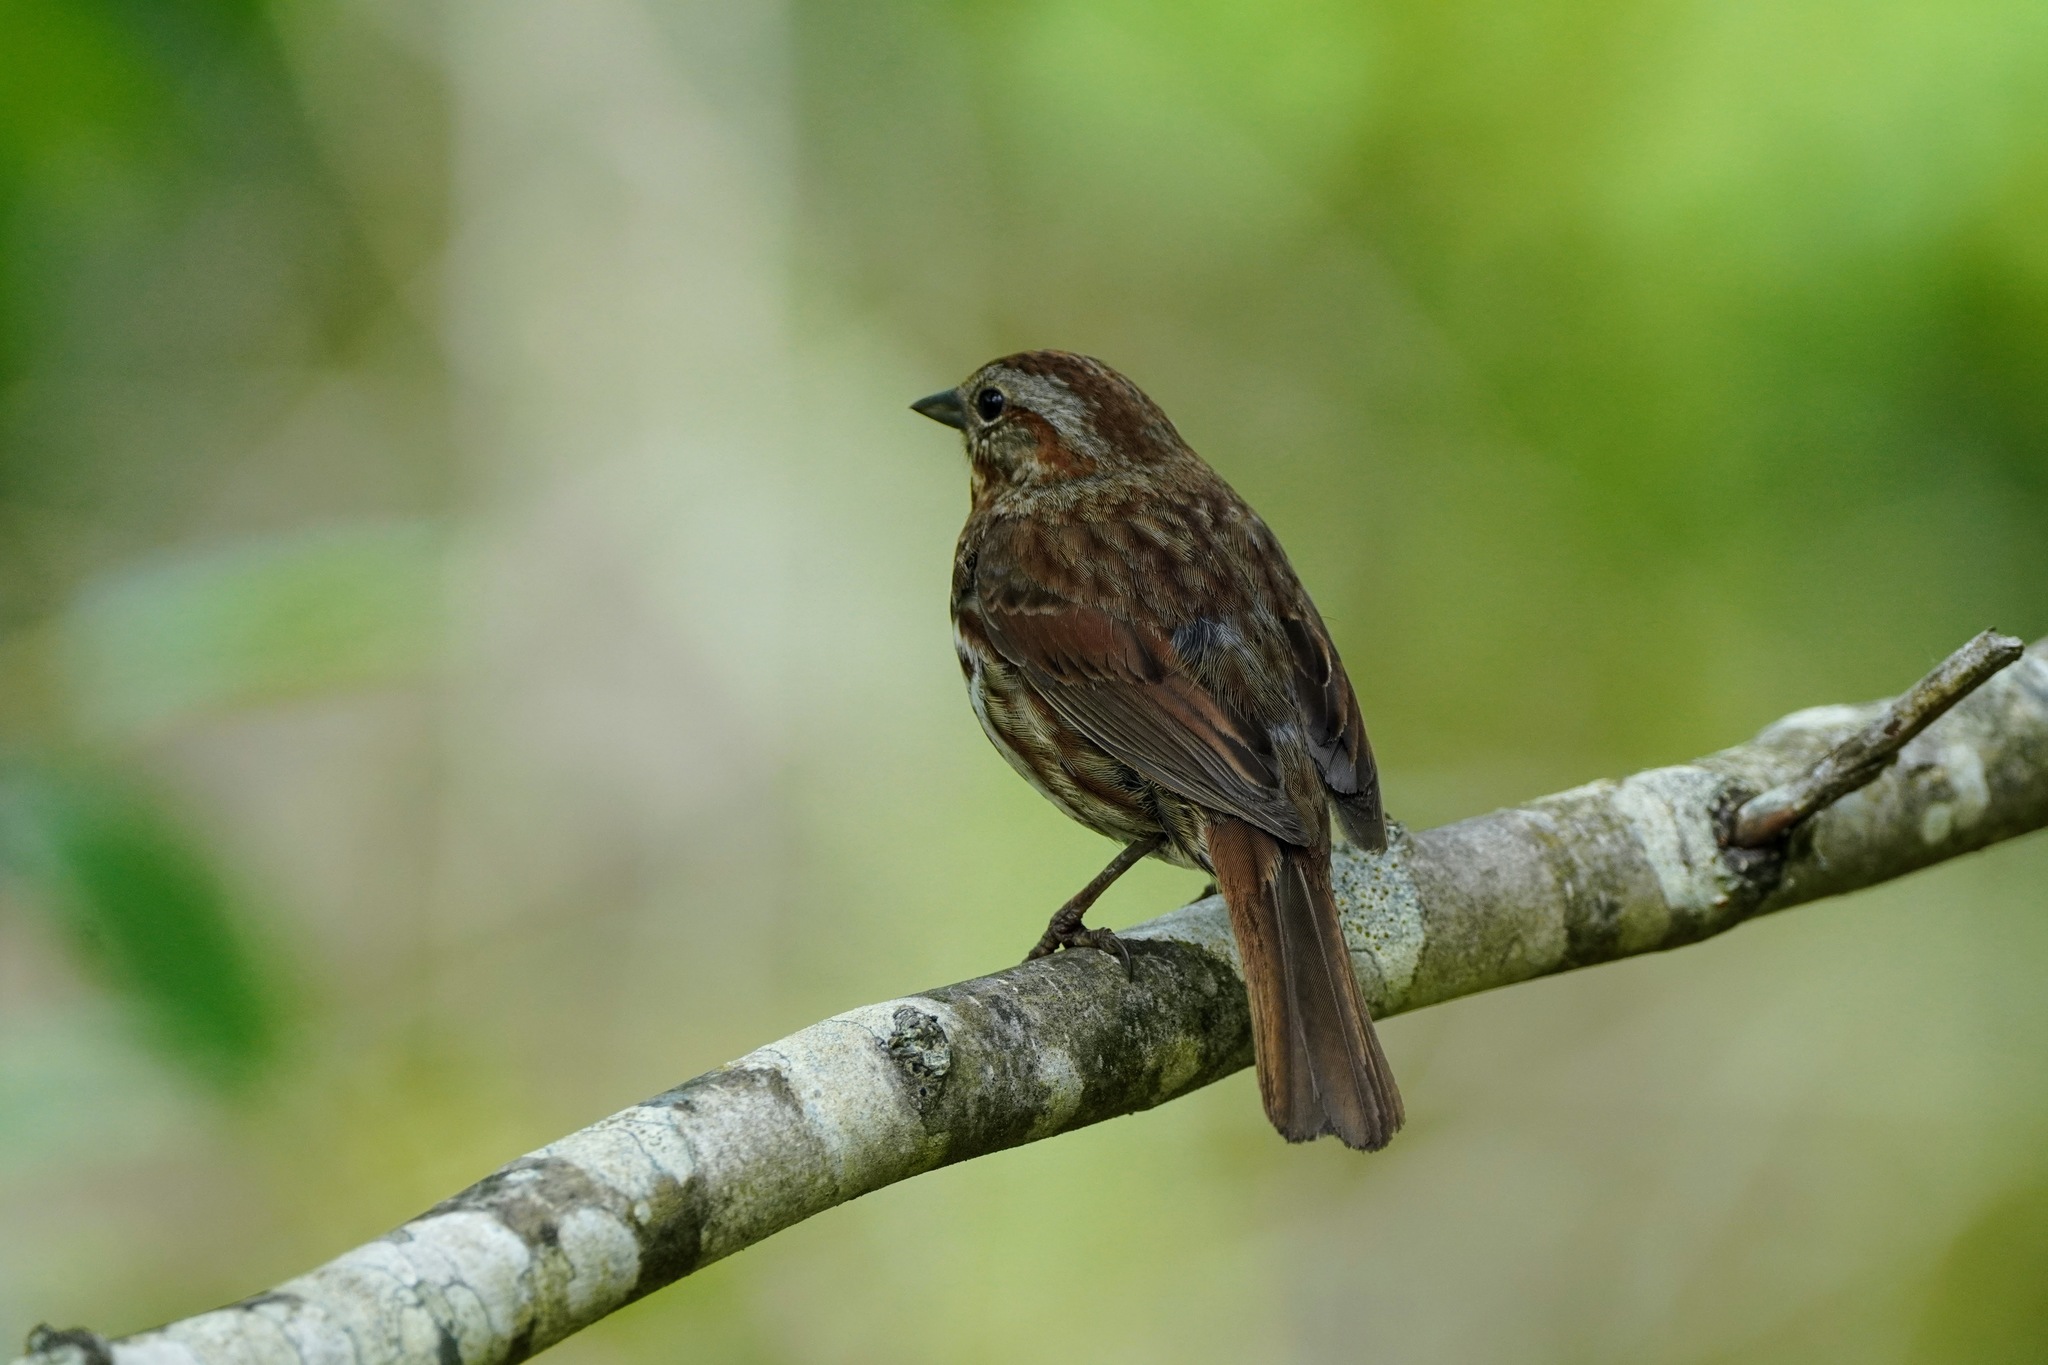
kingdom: Animalia
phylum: Chordata
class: Aves
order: Passeriformes
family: Passerellidae
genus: Melospiza
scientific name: Melospiza melodia
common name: Song sparrow
